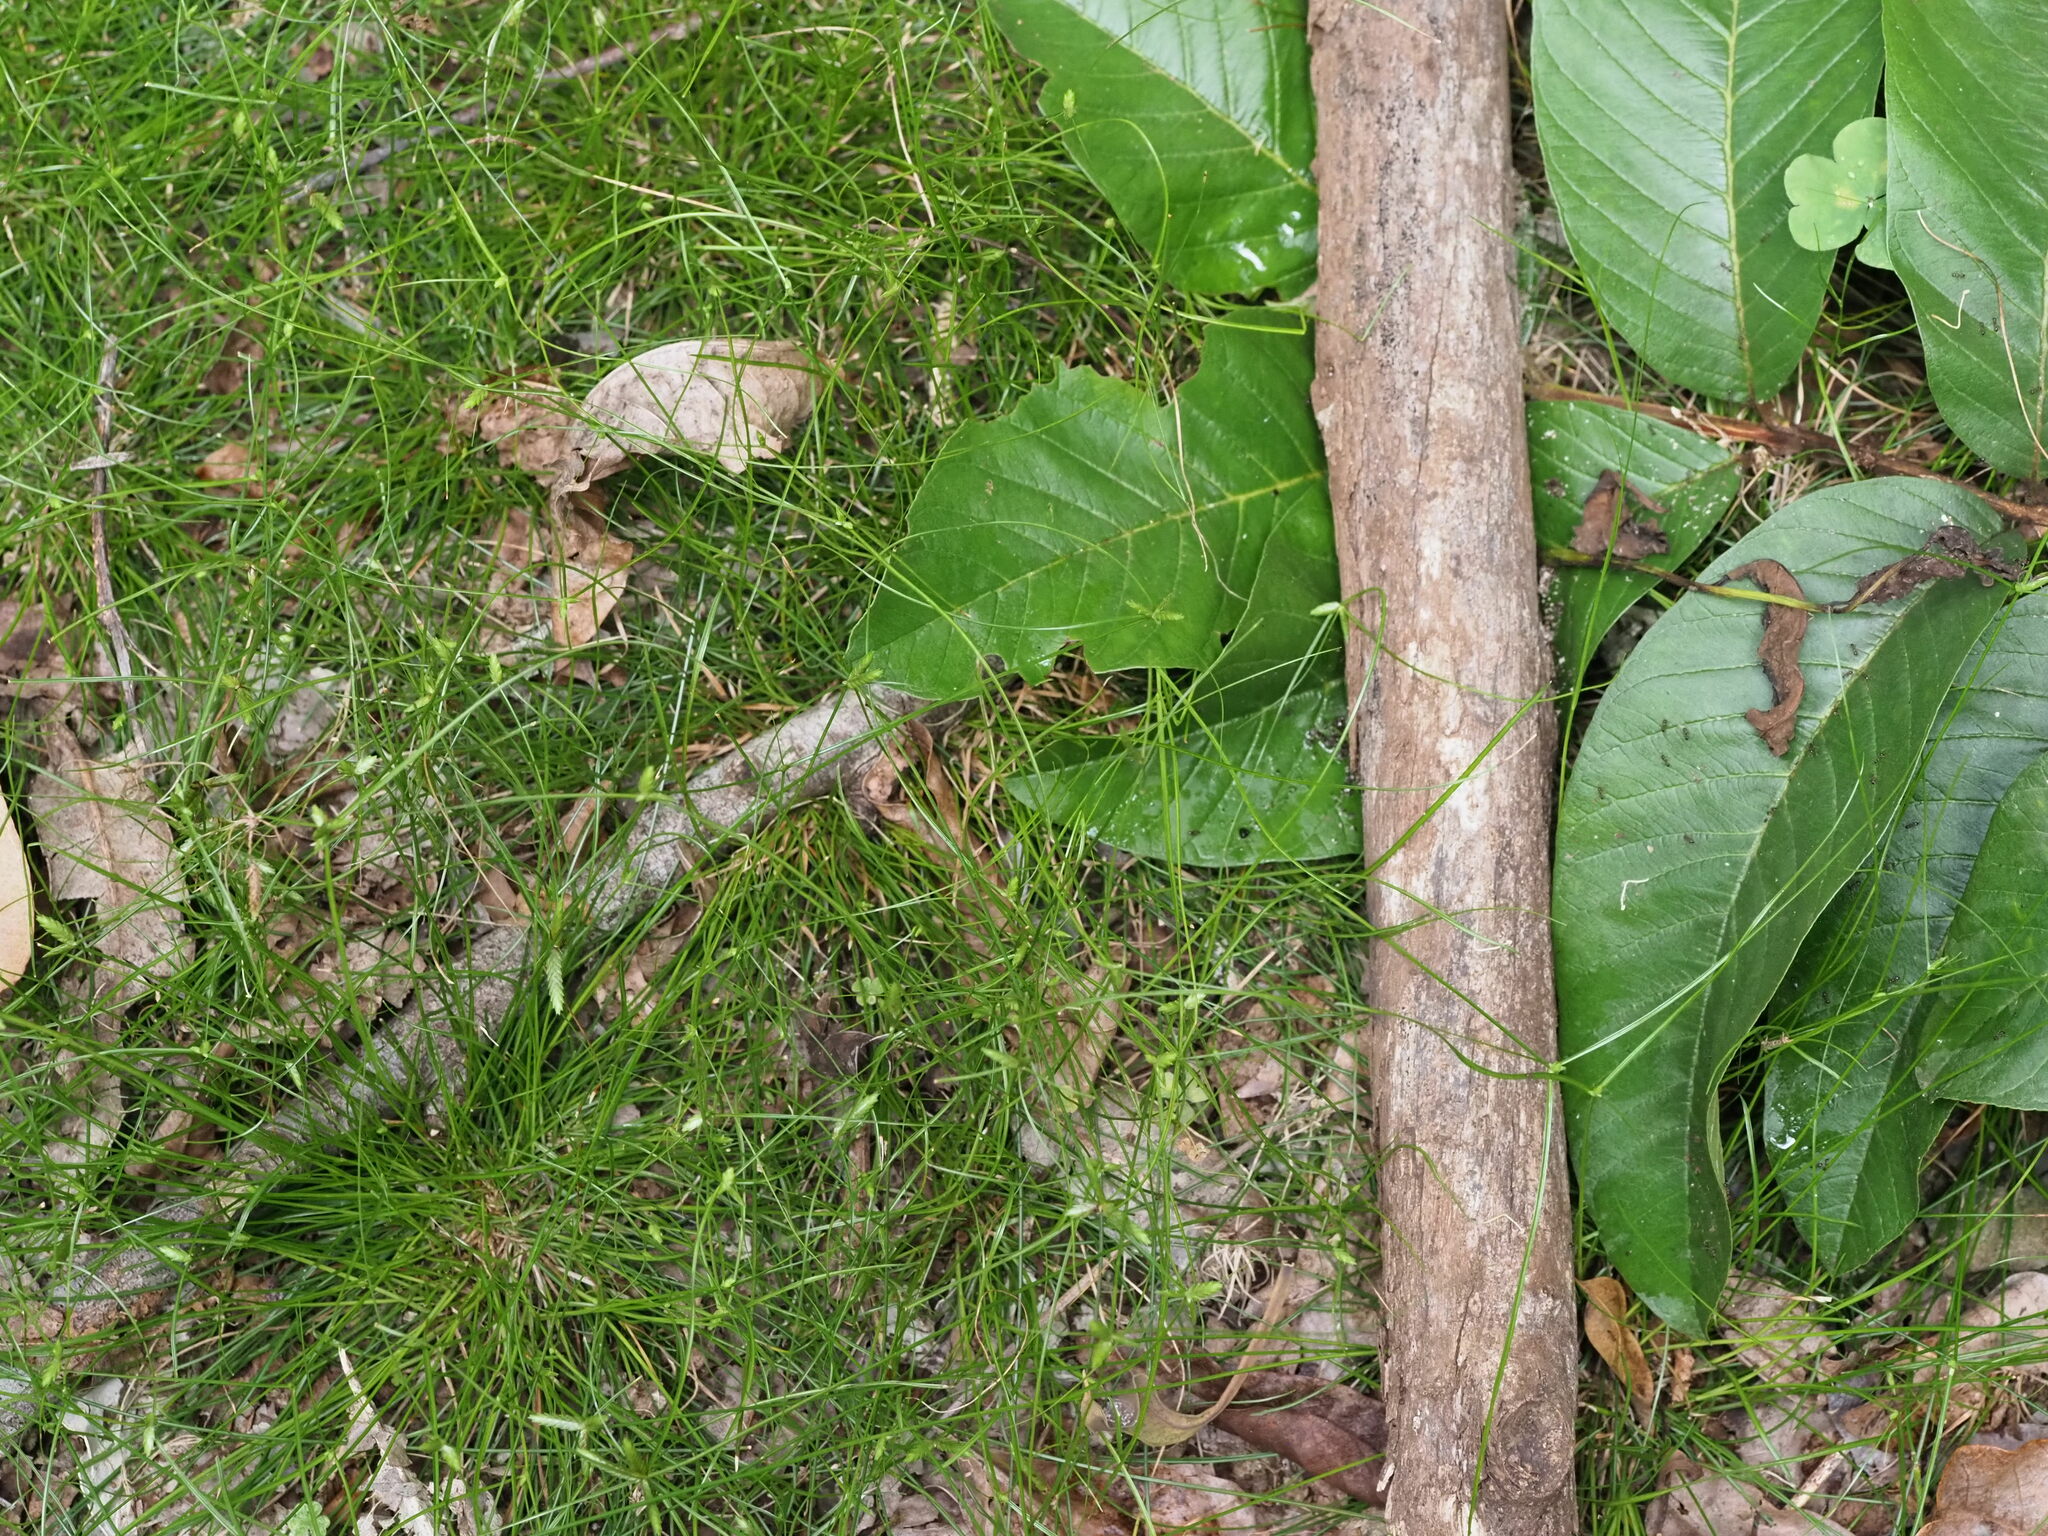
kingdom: Plantae
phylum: Tracheophyta
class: Liliopsida
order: Poales
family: Cyperaceae
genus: Cyperus
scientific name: Cyperus gracilis
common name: Slimjim flatsedge
